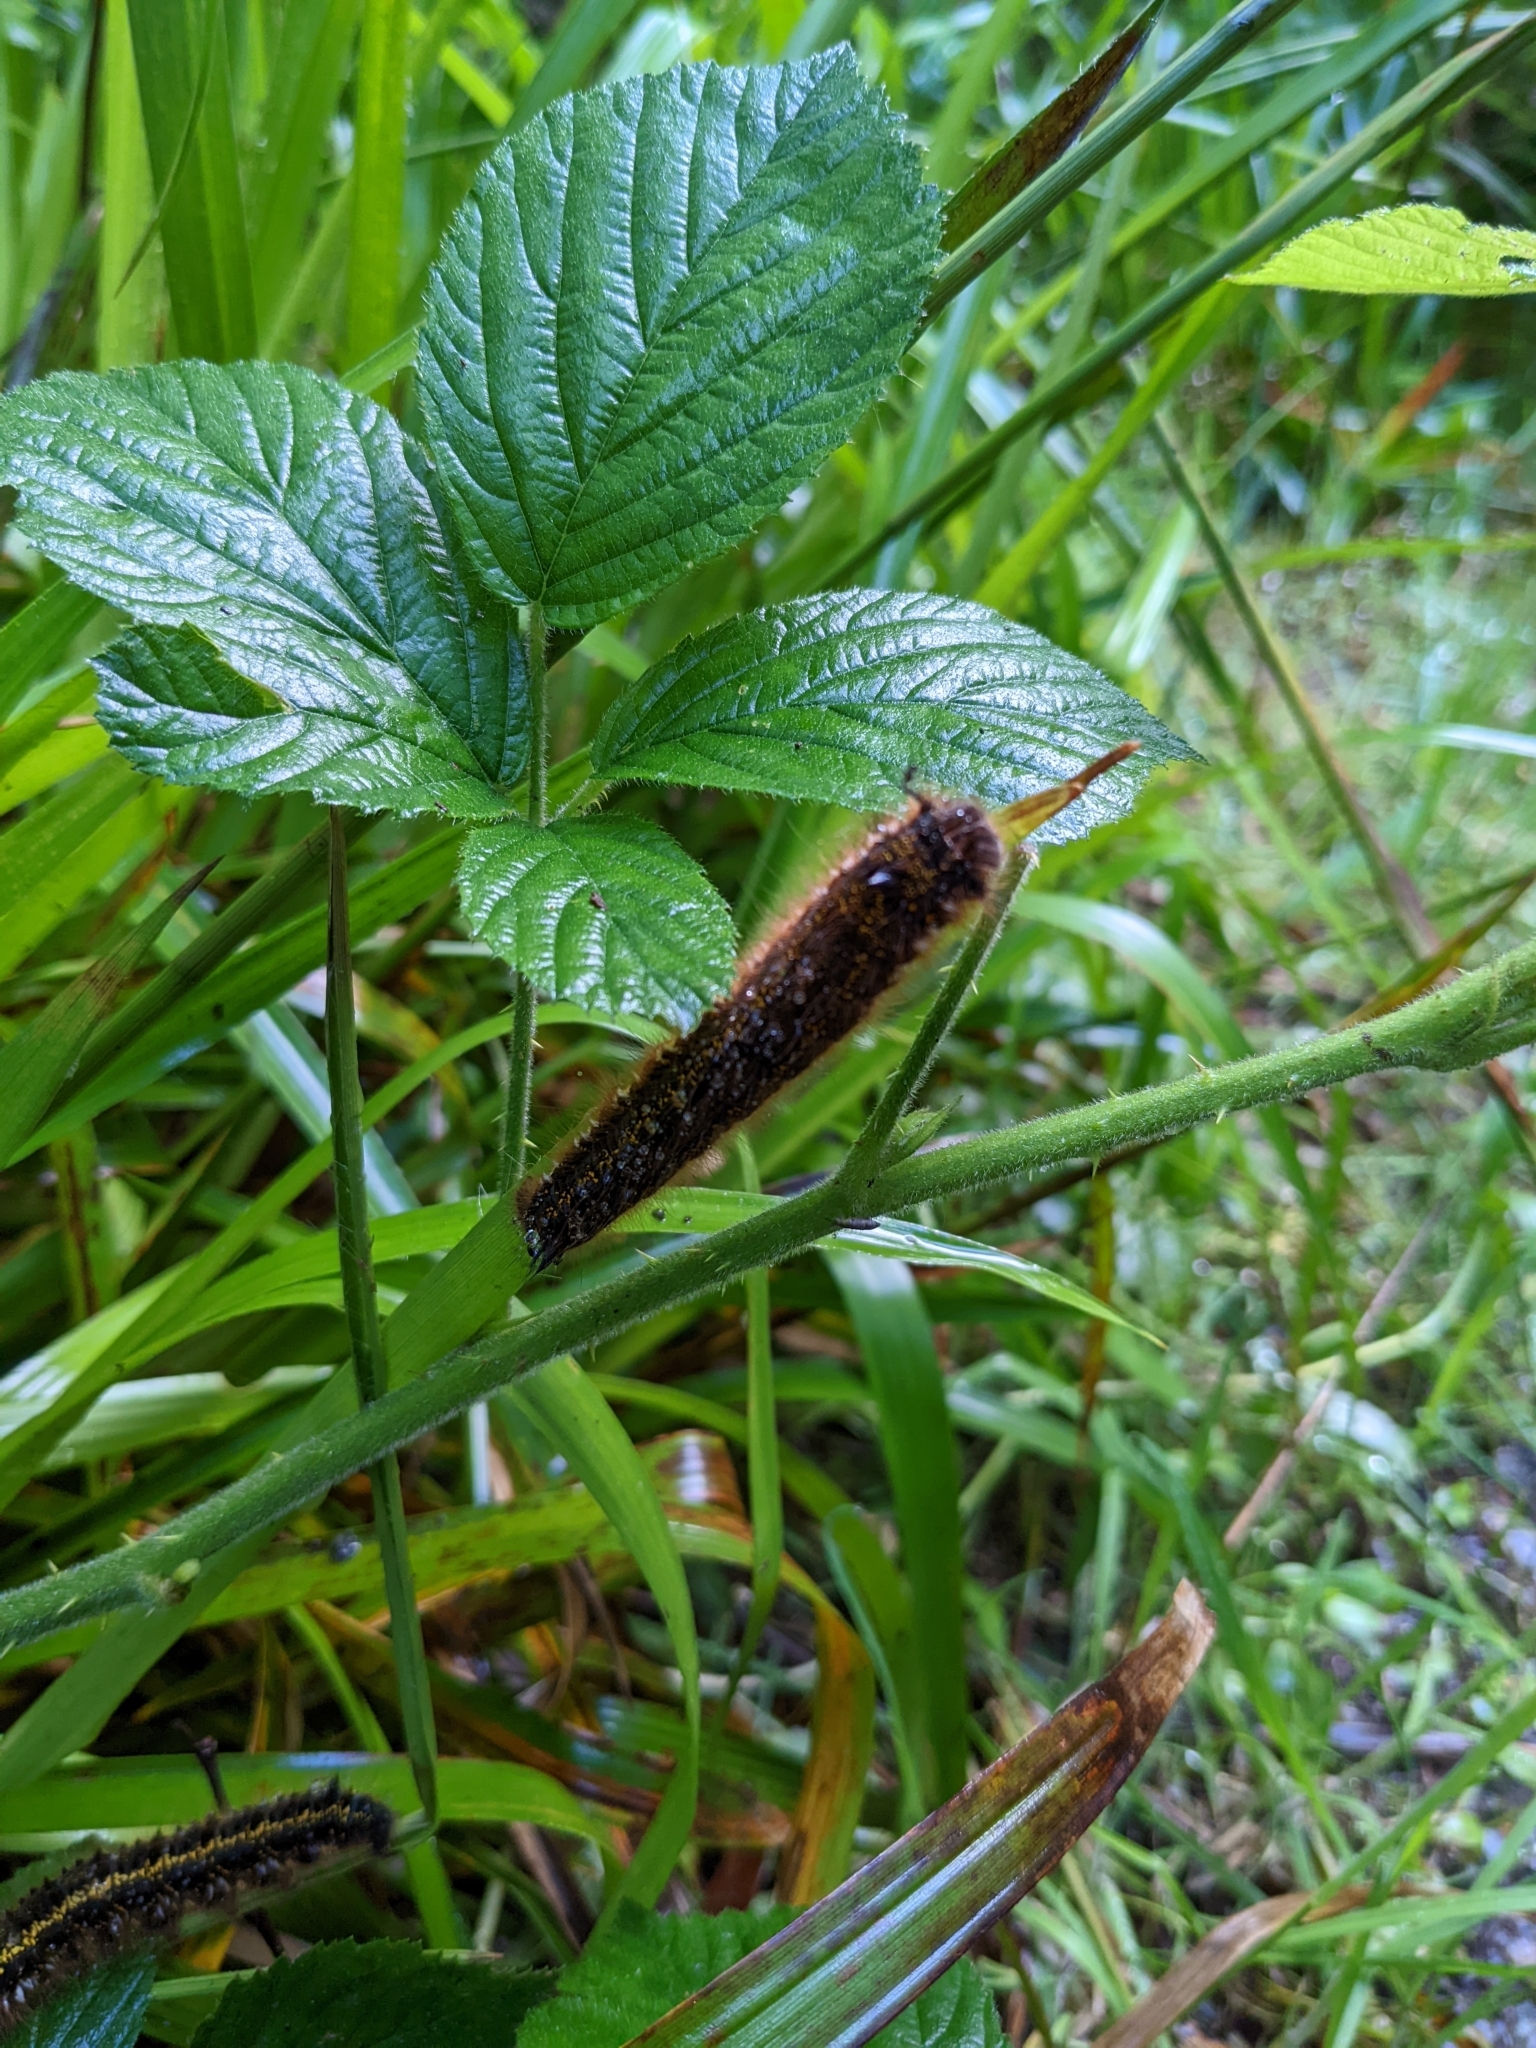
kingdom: Animalia
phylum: Arthropoda
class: Insecta
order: Lepidoptera
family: Lasiocampidae
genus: Euthrix
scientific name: Euthrix potatoria
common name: Drinker
